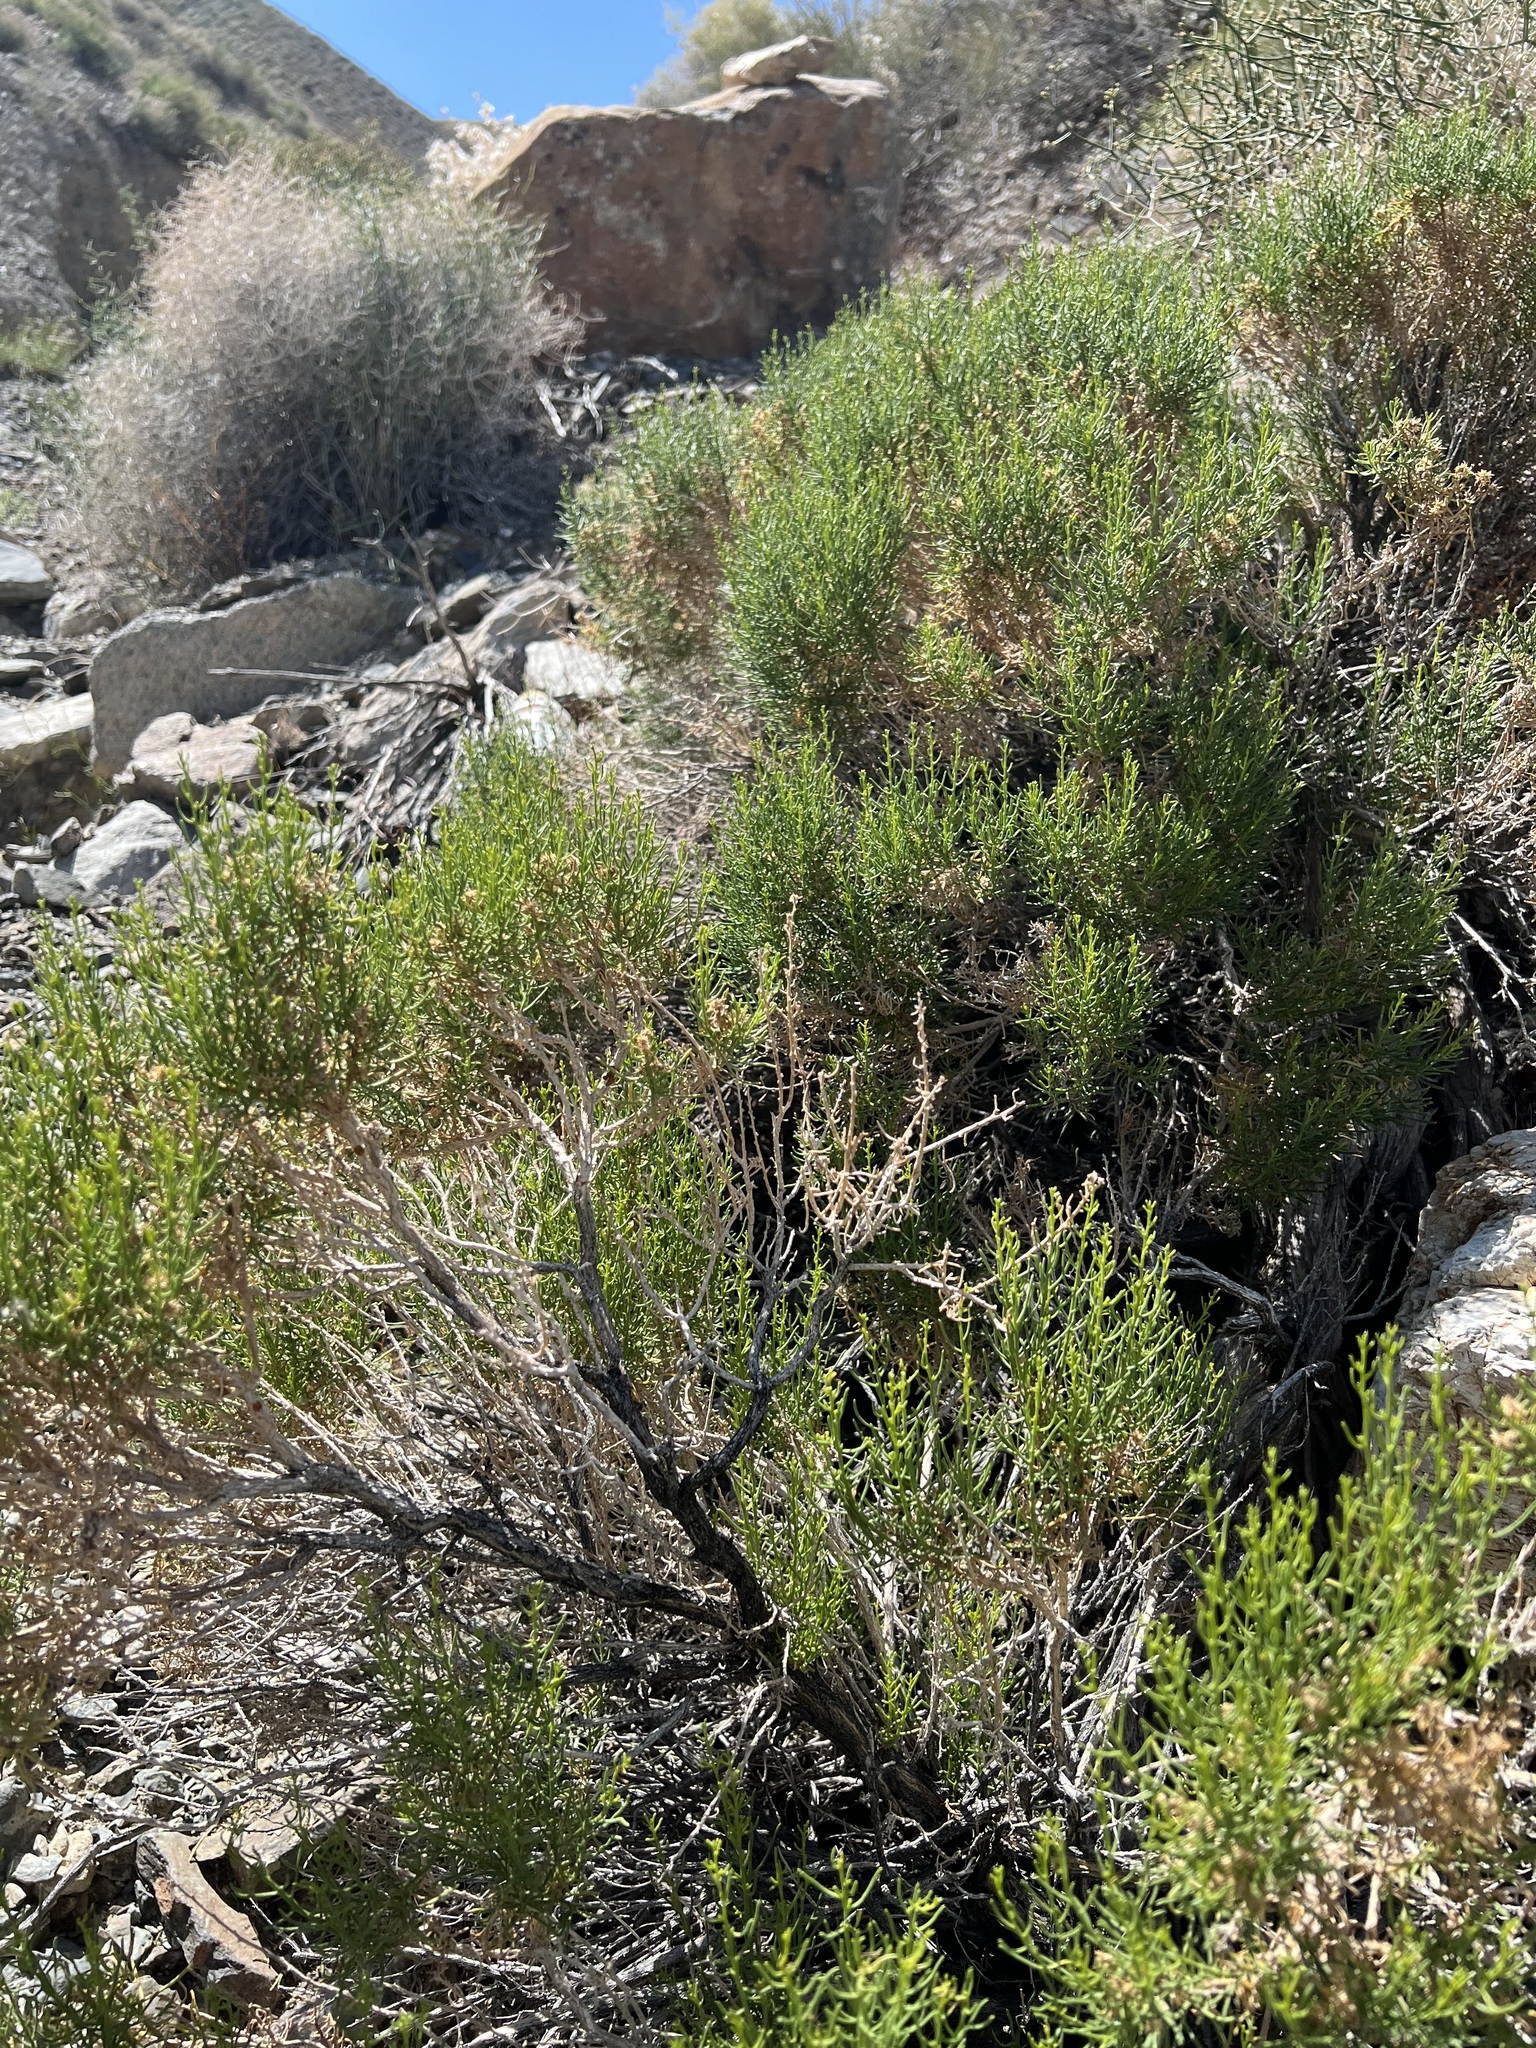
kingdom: Plantae
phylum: Tracheophyta
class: Magnoliopsida
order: Asterales
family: Asteraceae
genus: Ericameria
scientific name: Ericameria teretifolia
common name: Round-leaf rabbitbrush
